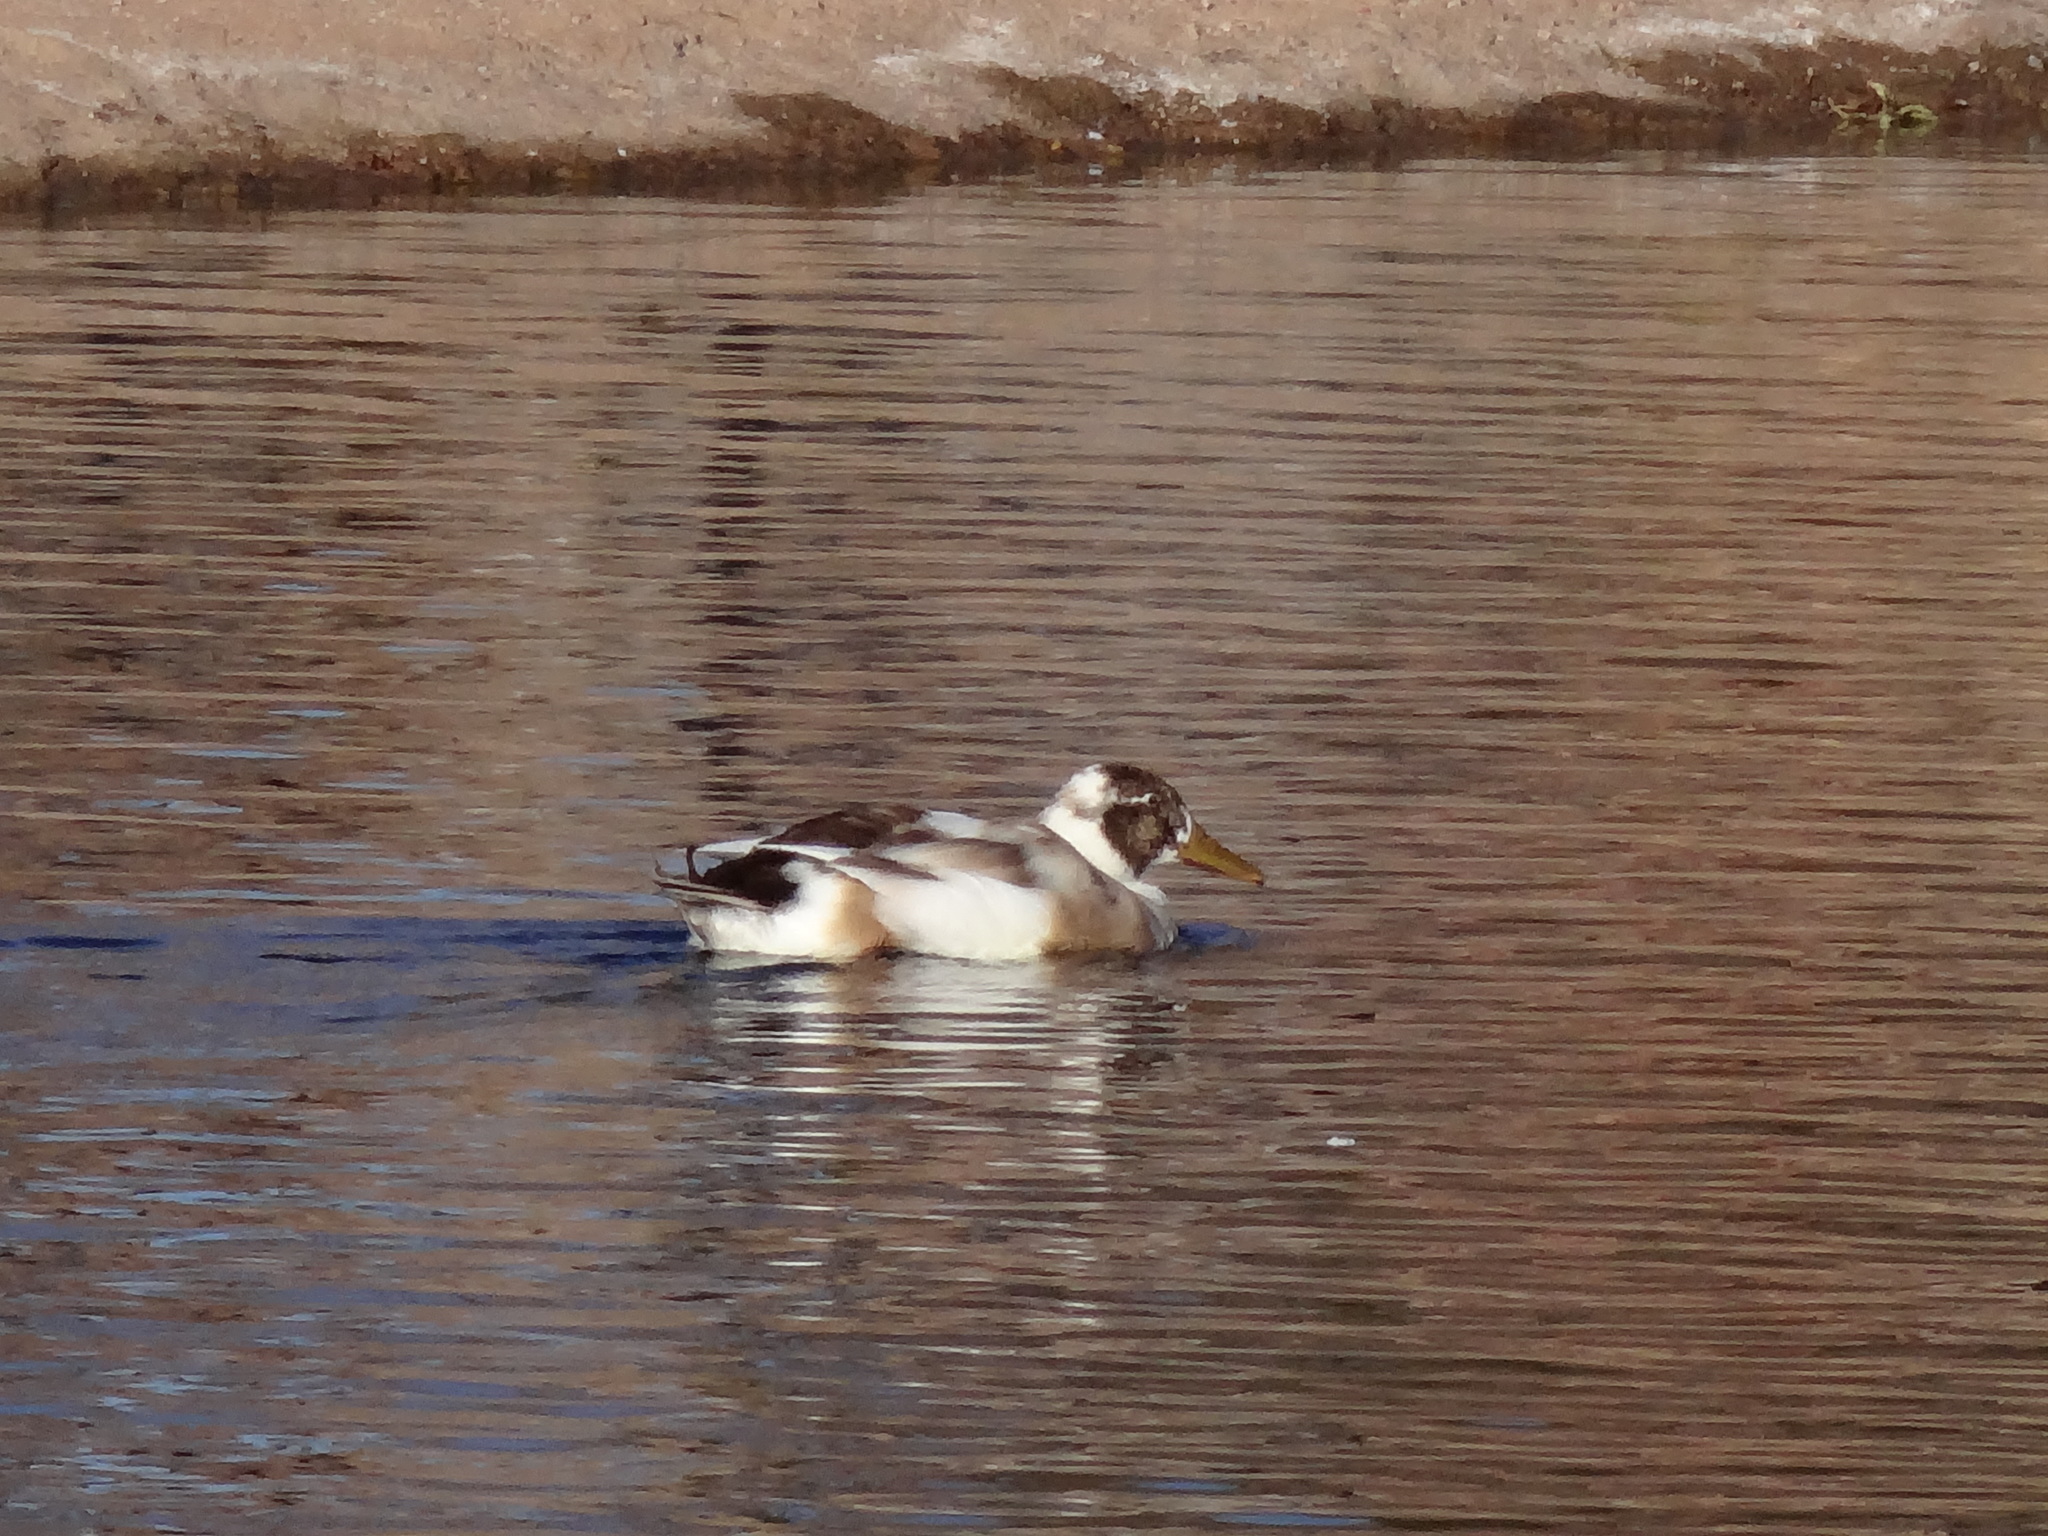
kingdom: Animalia
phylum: Chordata
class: Aves
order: Anseriformes
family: Anatidae
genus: Anas
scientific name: Anas platyrhynchos
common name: Mallard
